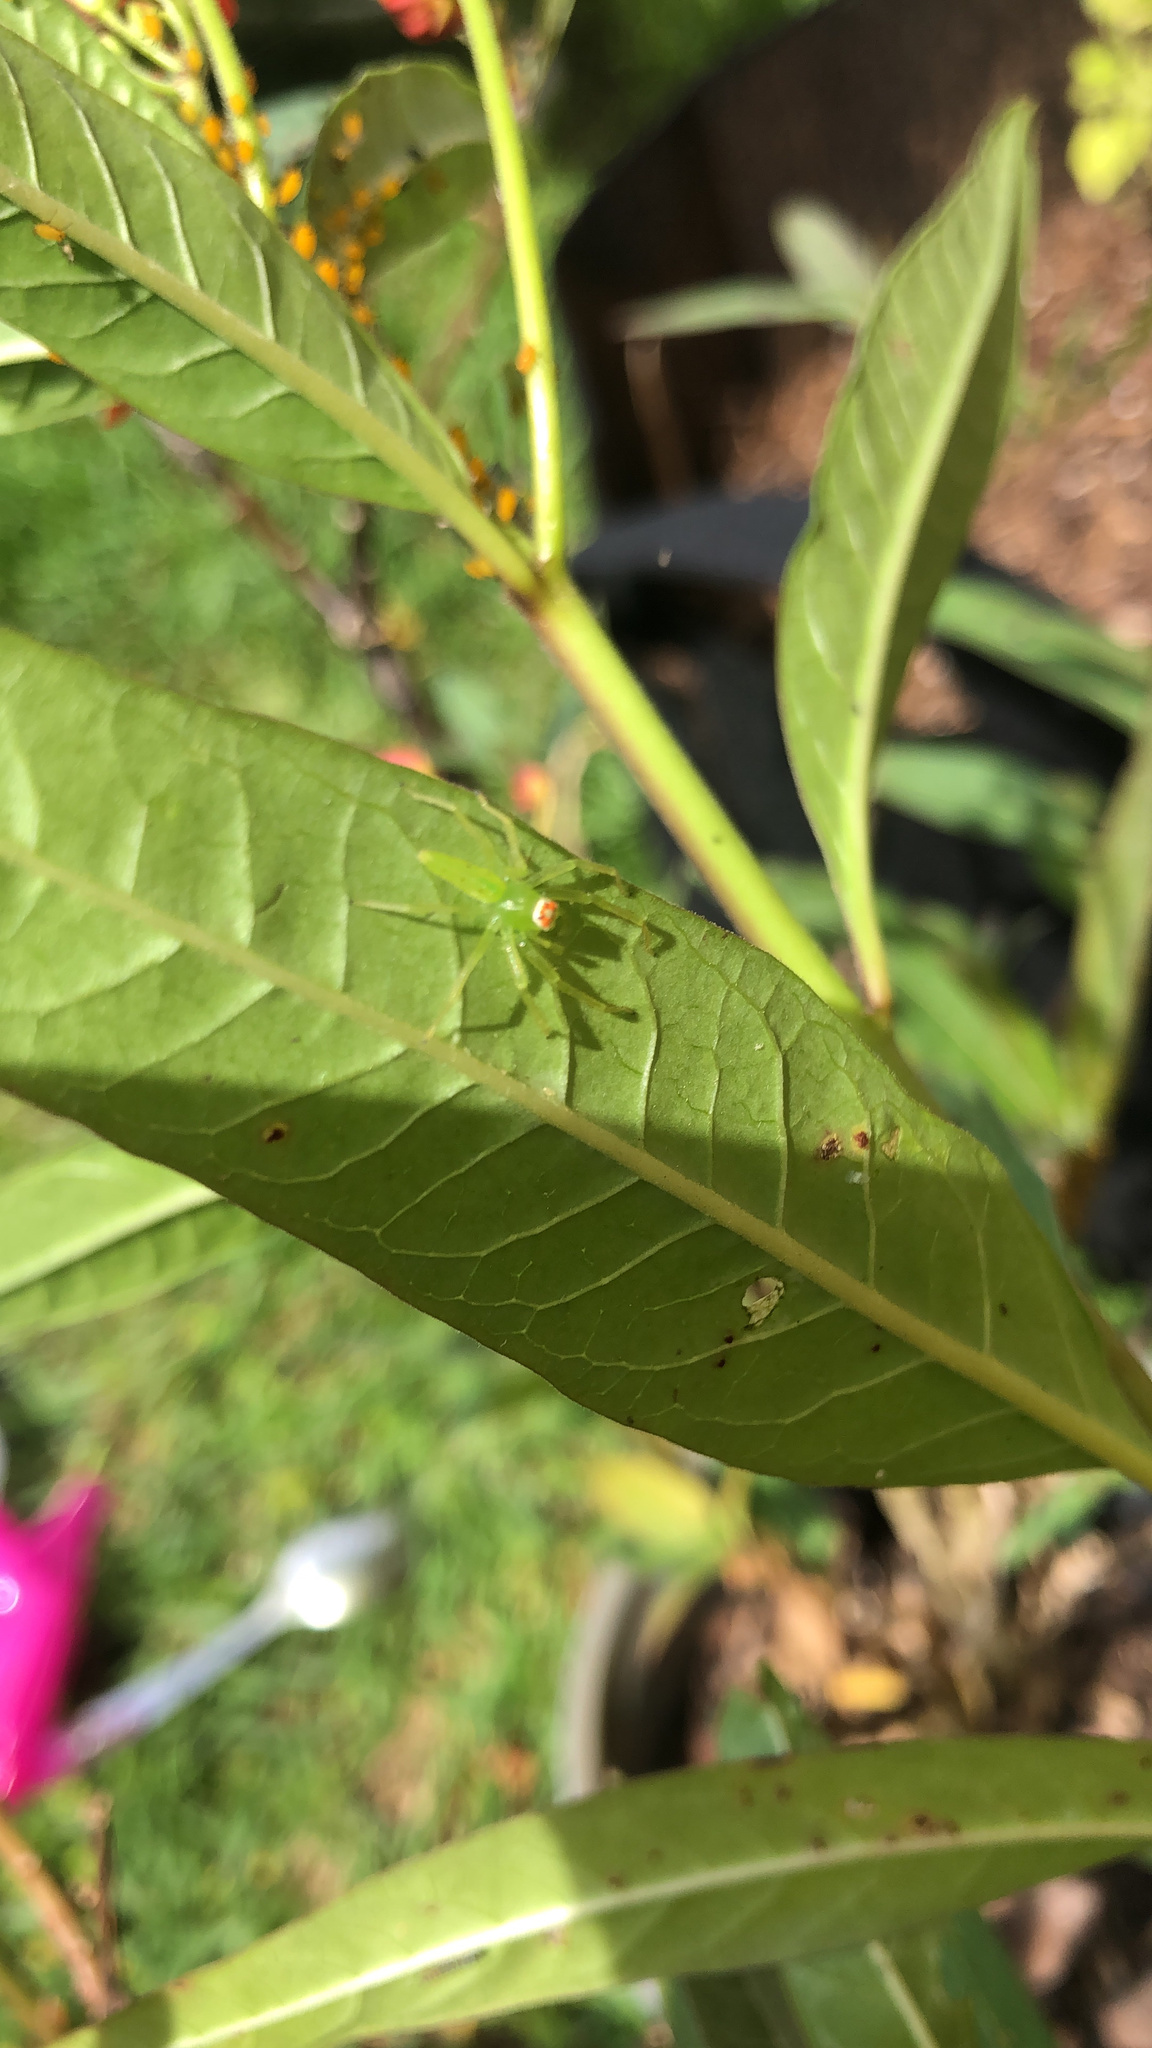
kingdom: Animalia
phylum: Arthropoda
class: Arachnida
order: Araneae
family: Salticidae
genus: Lyssomanes
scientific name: Lyssomanes viridis
